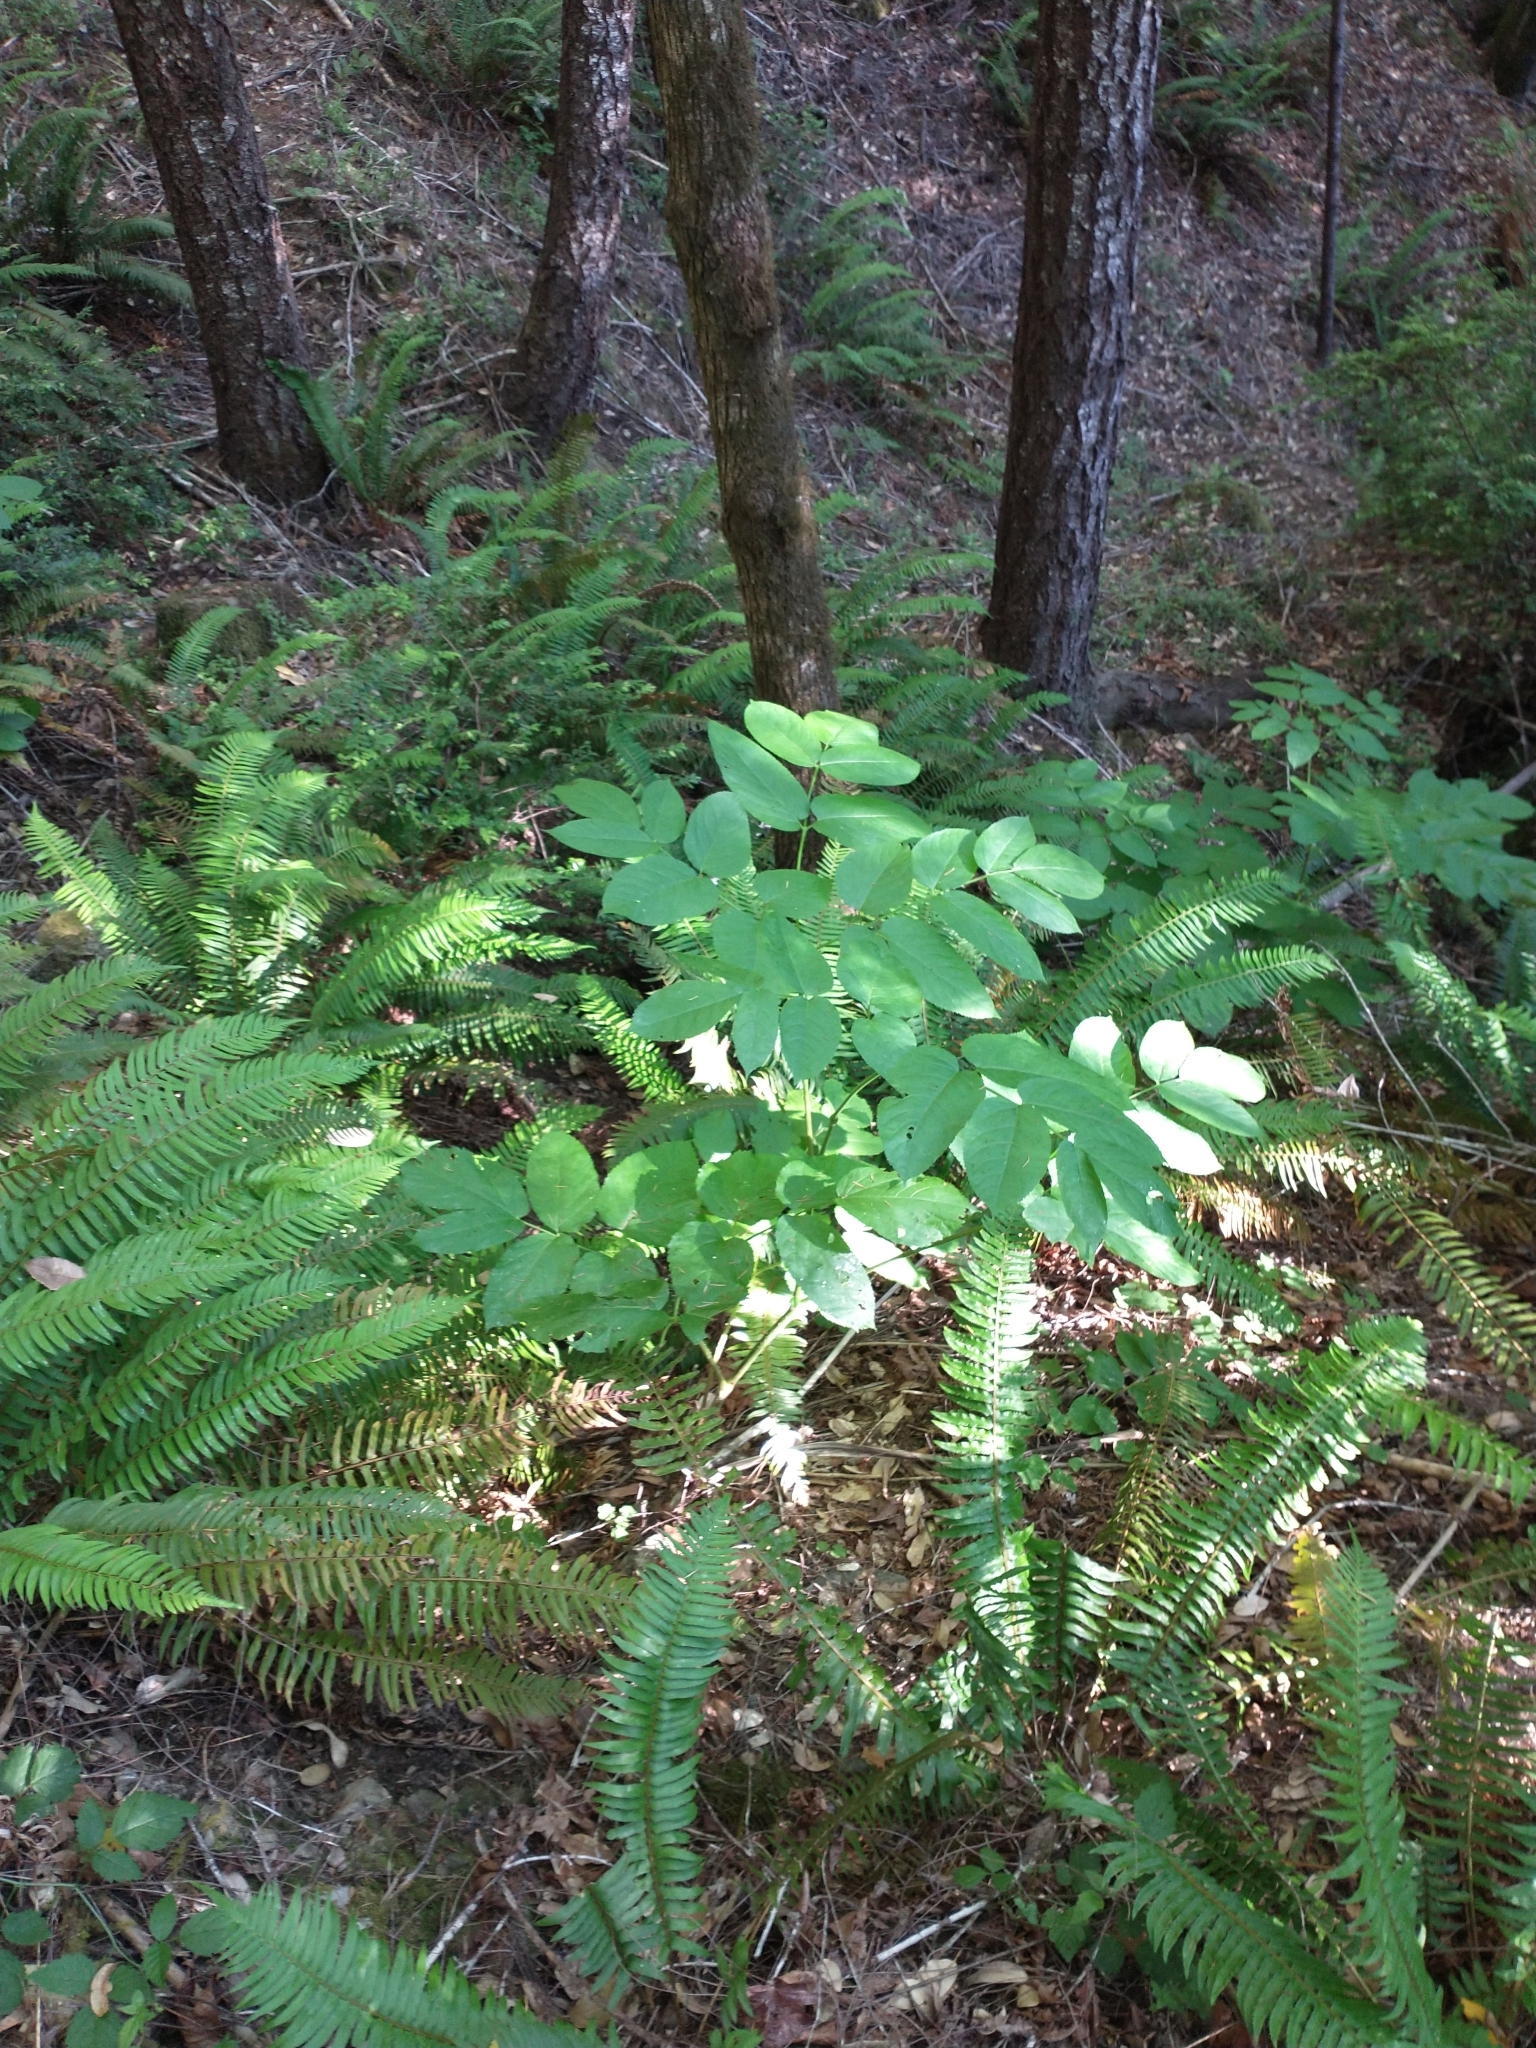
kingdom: Plantae
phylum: Tracheophyta
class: Magnoliopsida
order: Apiales
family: Araliaceae
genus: Aralia
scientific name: Aralia californica
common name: California-ginseng
